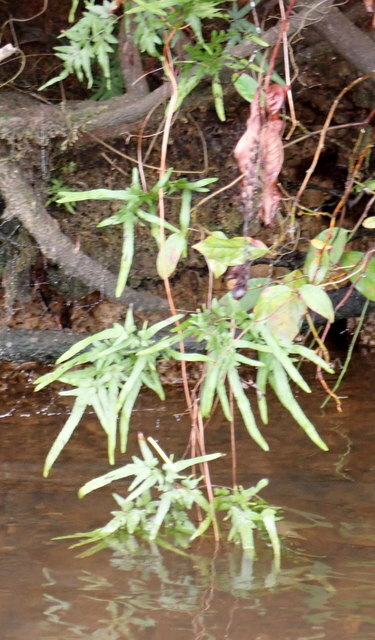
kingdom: Plantae
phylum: Tracheophyta
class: Polypodiopsida
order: Schizaeales
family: Lygodiaceae
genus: Lygodium
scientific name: Lygodium japonicum
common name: Japanese climbing fern
